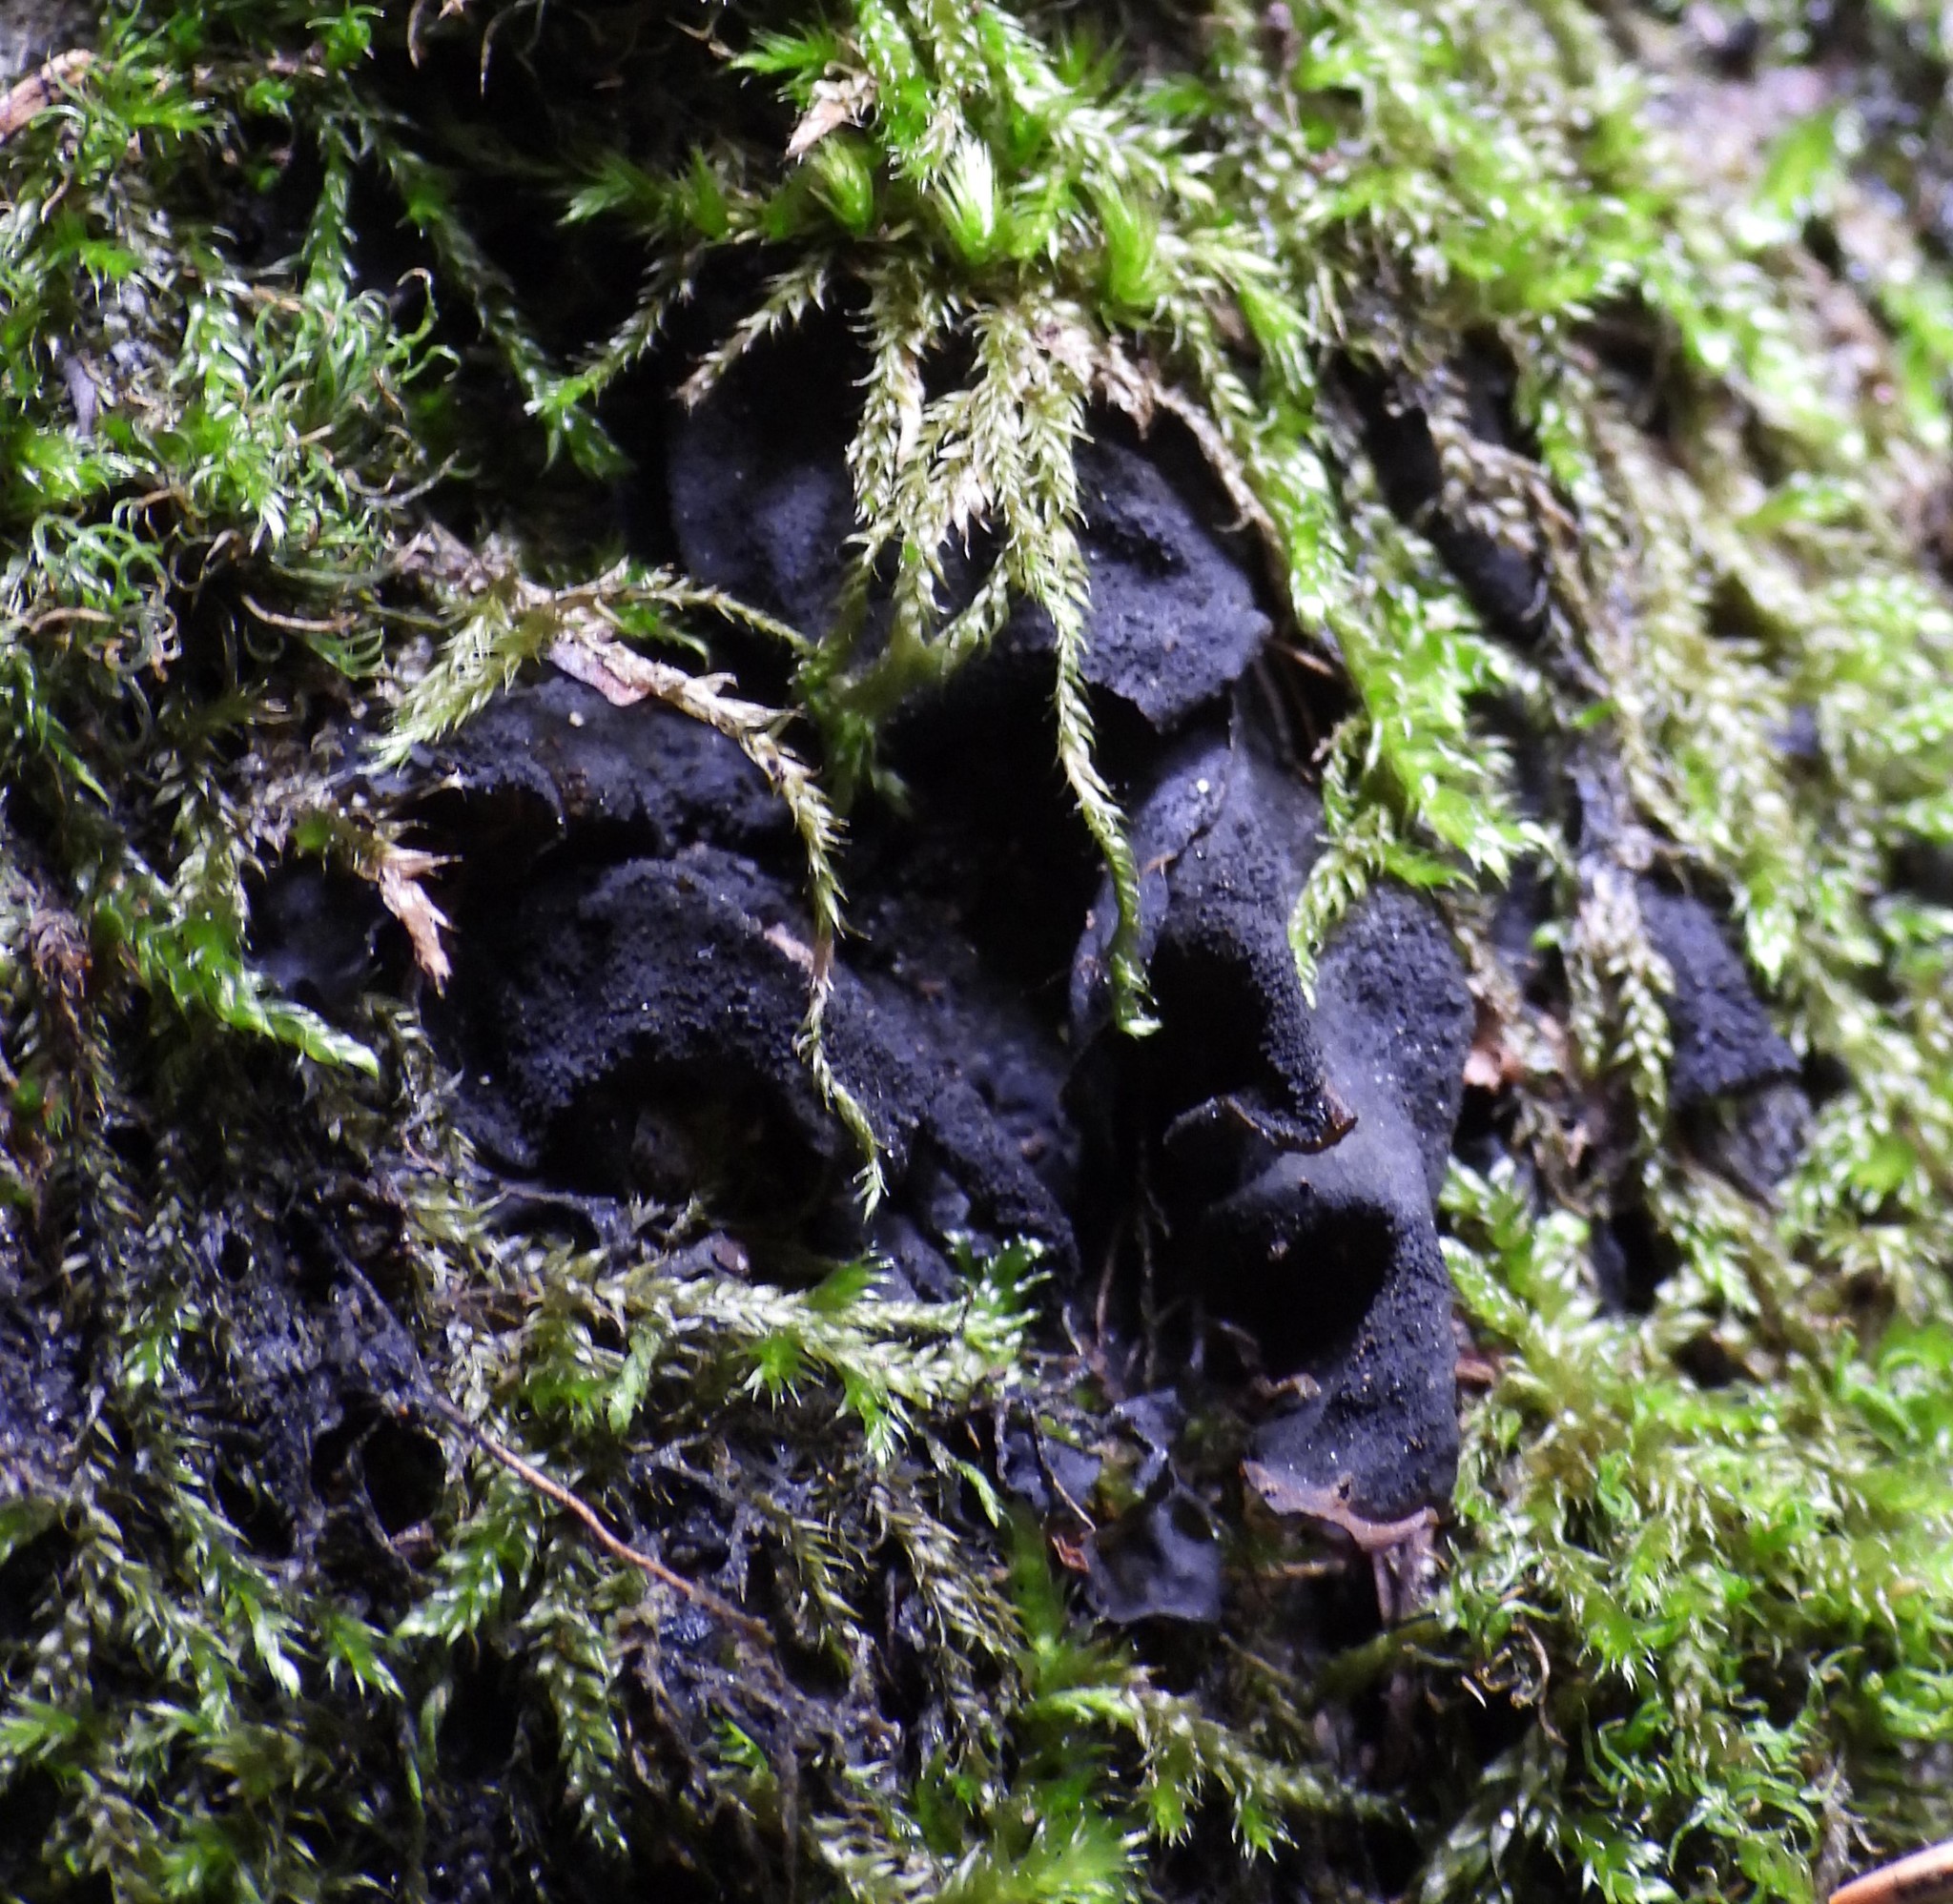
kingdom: Fungi
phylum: Ascomycota
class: Lecanoromycetes
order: Peltigerales
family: Collemataceae
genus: Collema
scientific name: Collema flaccidum
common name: Butterfly jelly lichen
